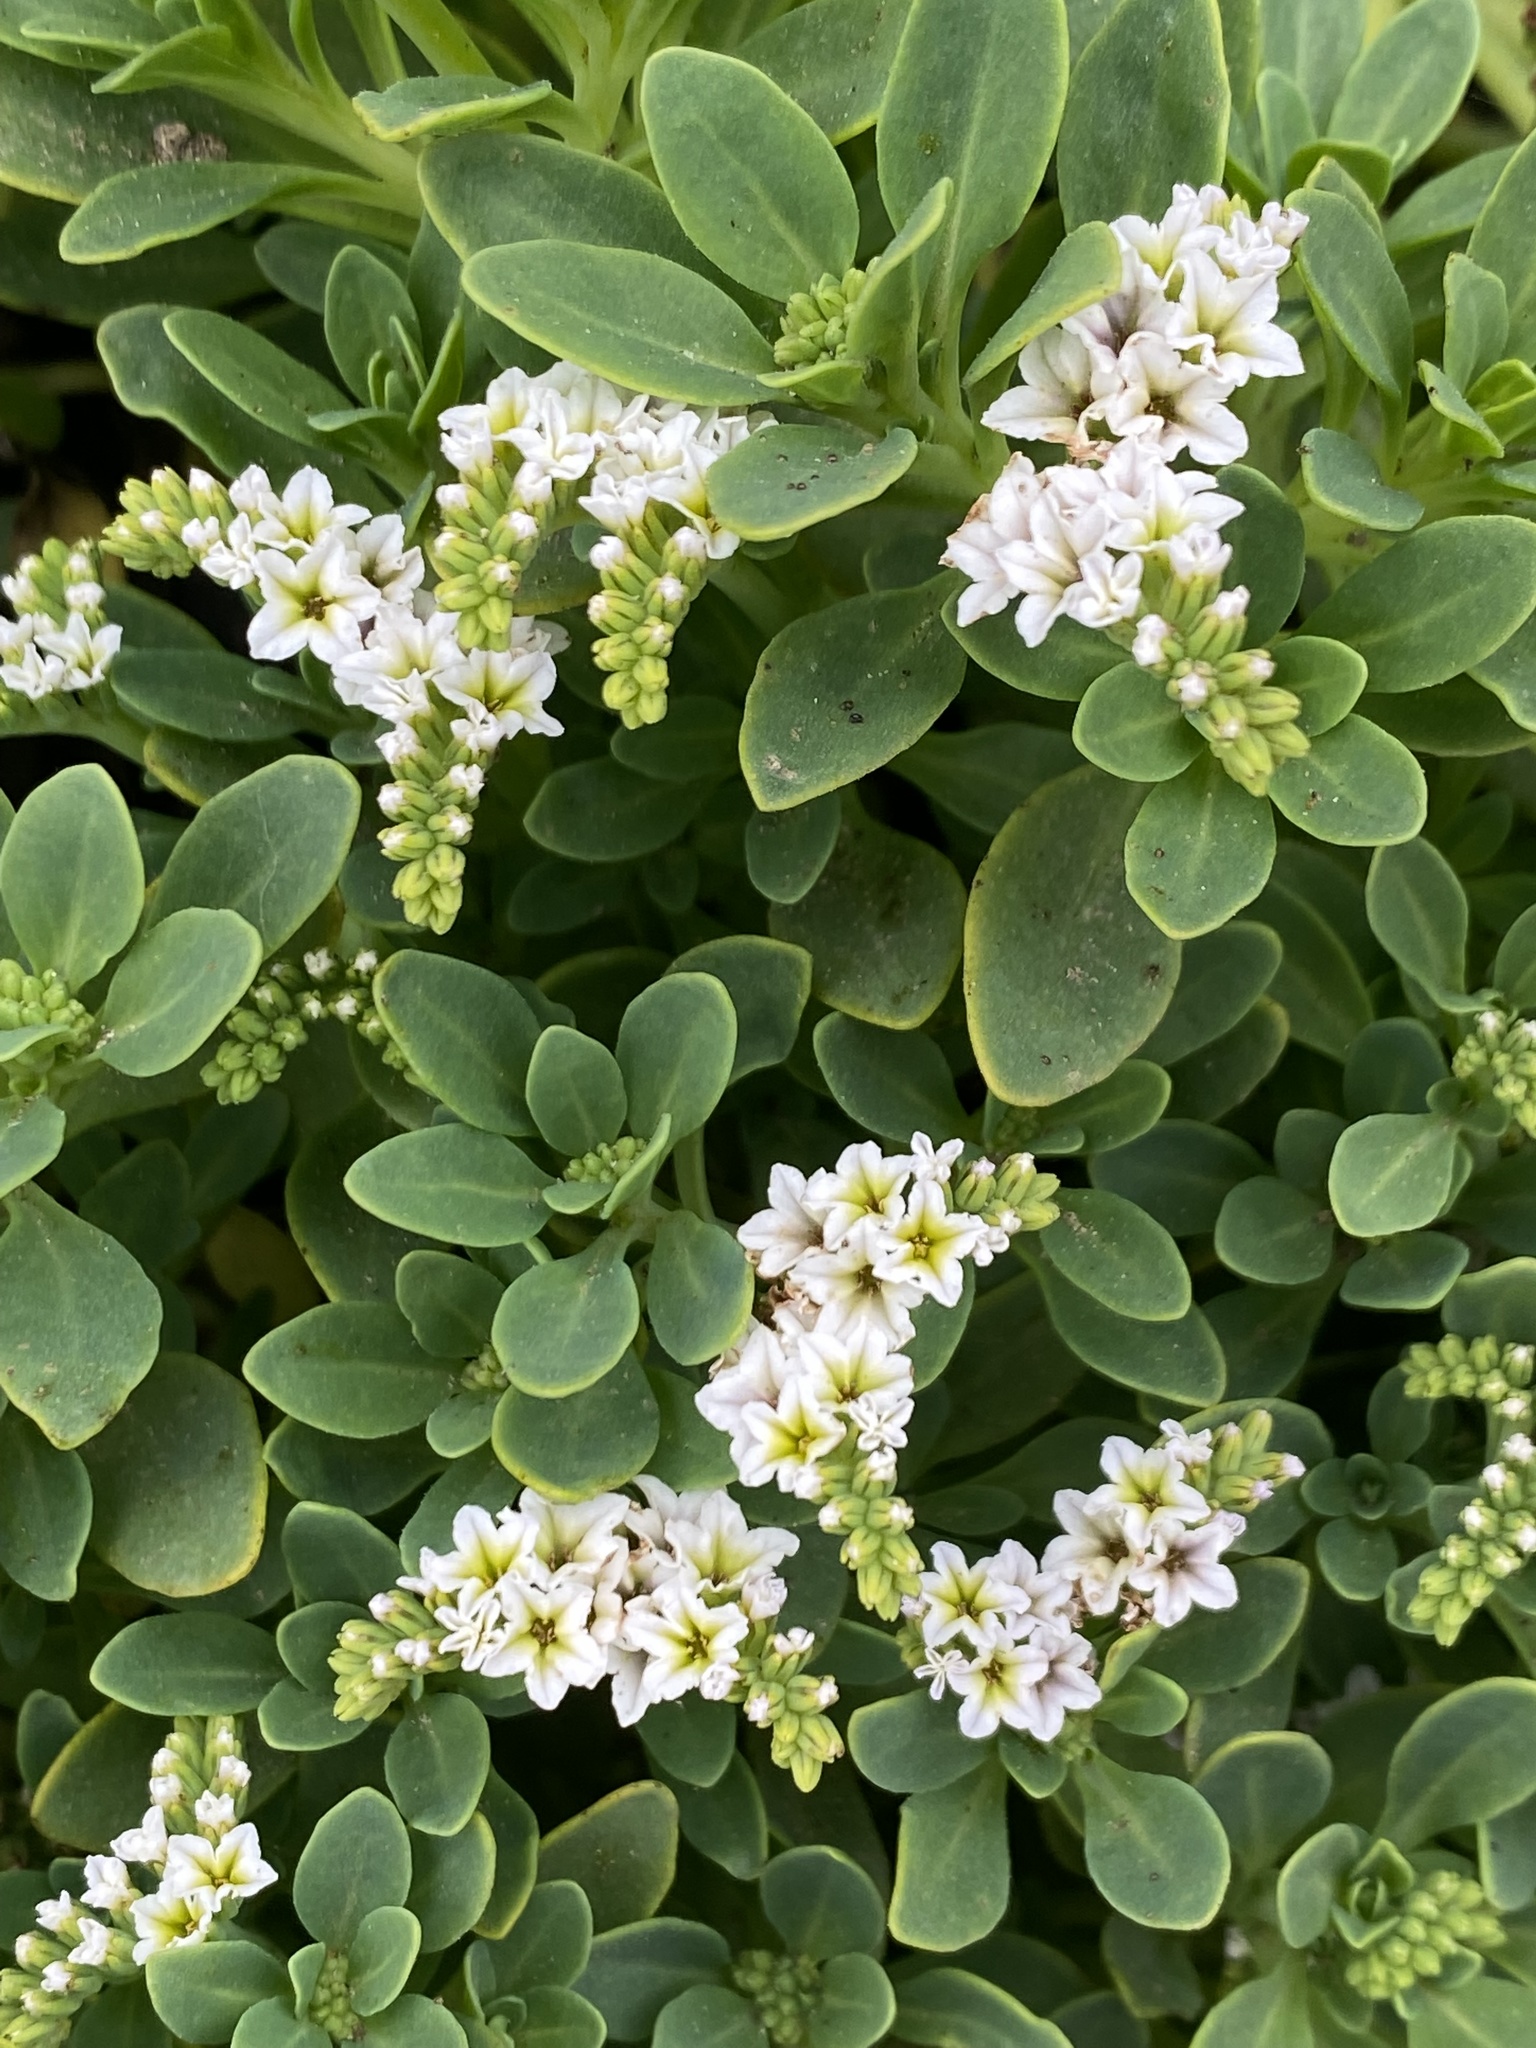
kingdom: Plantae
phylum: Tracheophyta
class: Magnoliopsida
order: Boraginales
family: Heliotropiaceae
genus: Heliotropium
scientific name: Heliotropium curassavicum
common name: Seaside heliotrope
